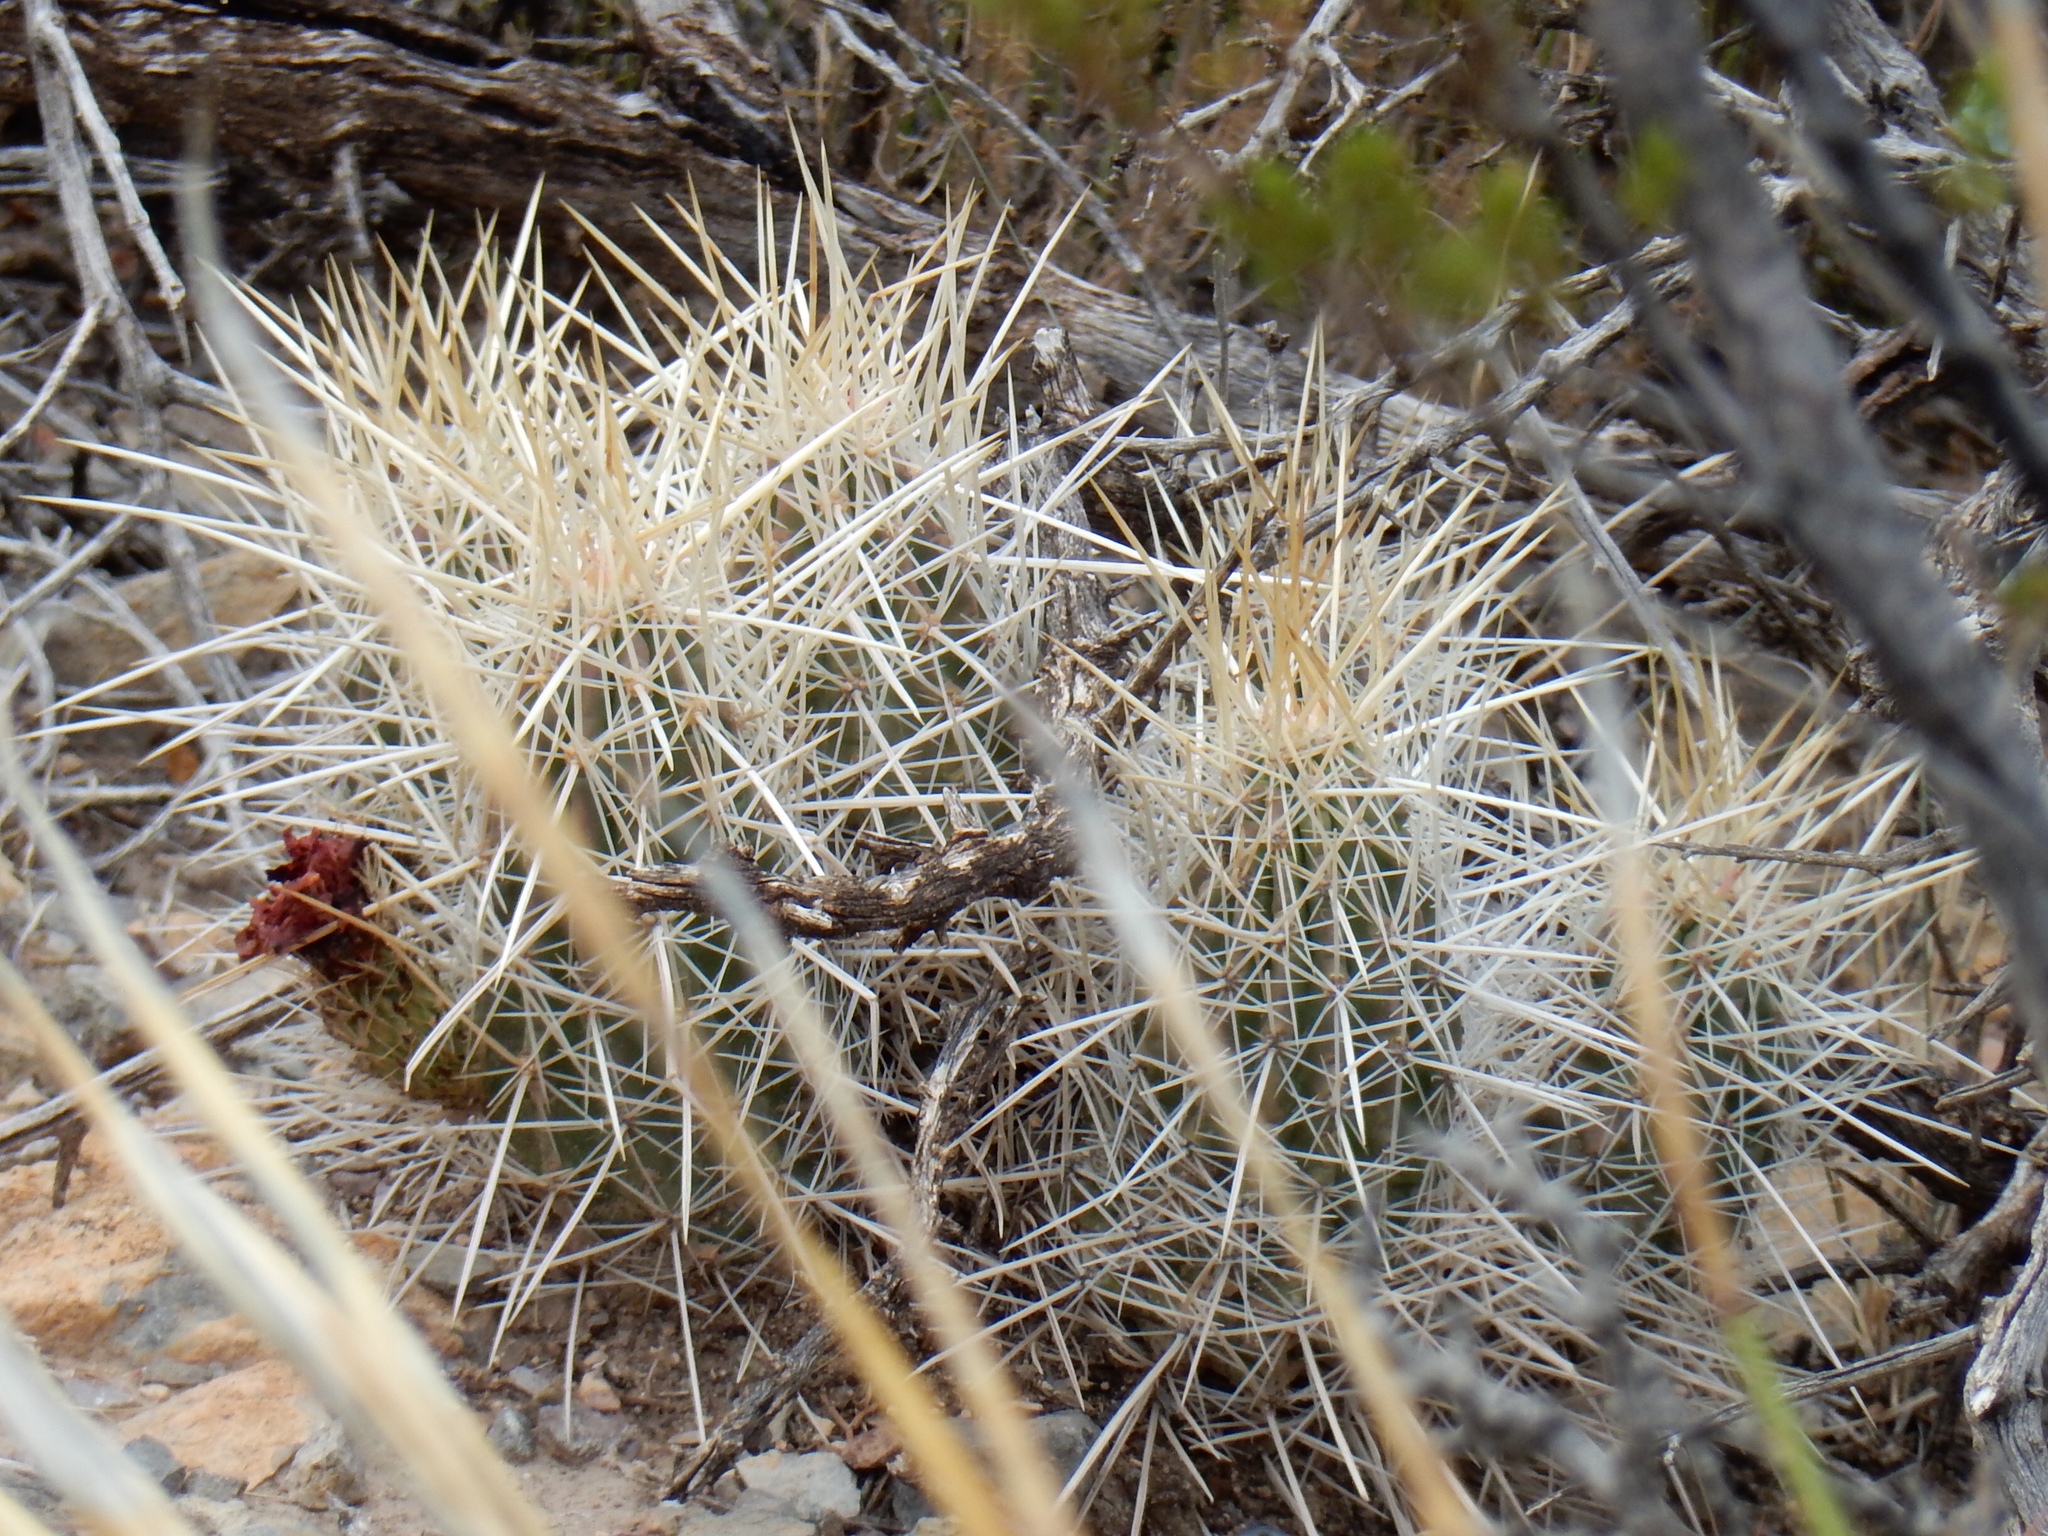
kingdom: Plantae
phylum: Tracheophyta
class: Magnoliopsida
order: Caryophyllales
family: Cactaceae
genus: Echinocereus
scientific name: Echinocereus stramineus
